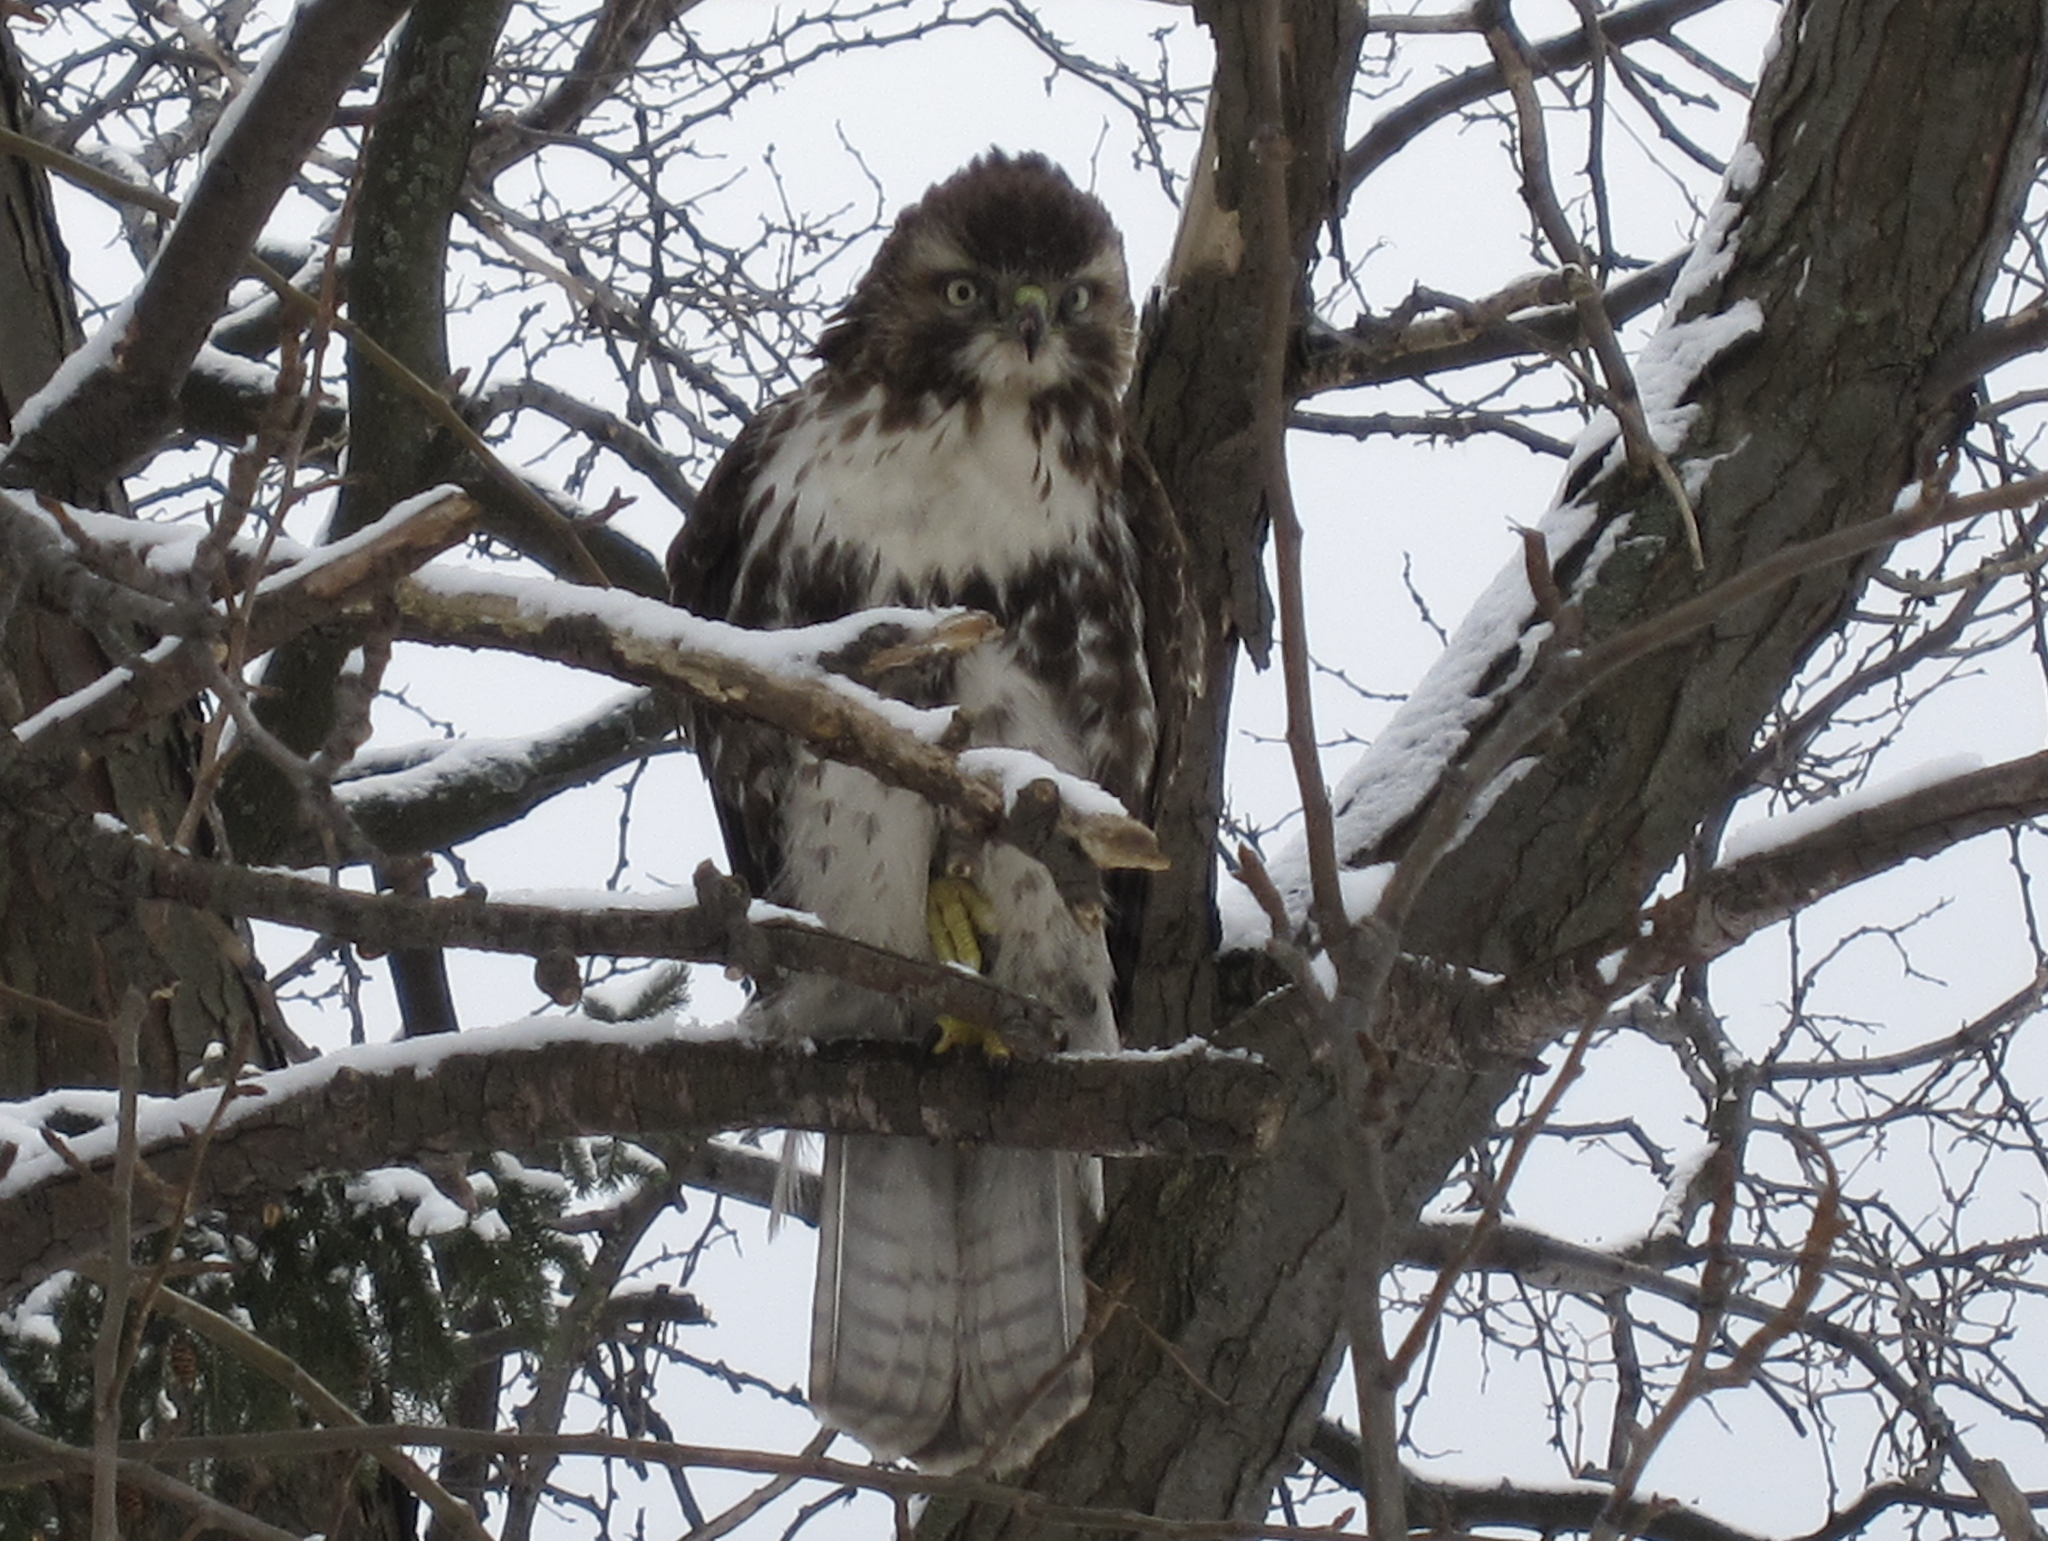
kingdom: Animalia
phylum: Chordata
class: Aves
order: Accipitriformes
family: Accipitridae
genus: Buteo
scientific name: Buteo jamaicensis
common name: Red-tailed hawk
